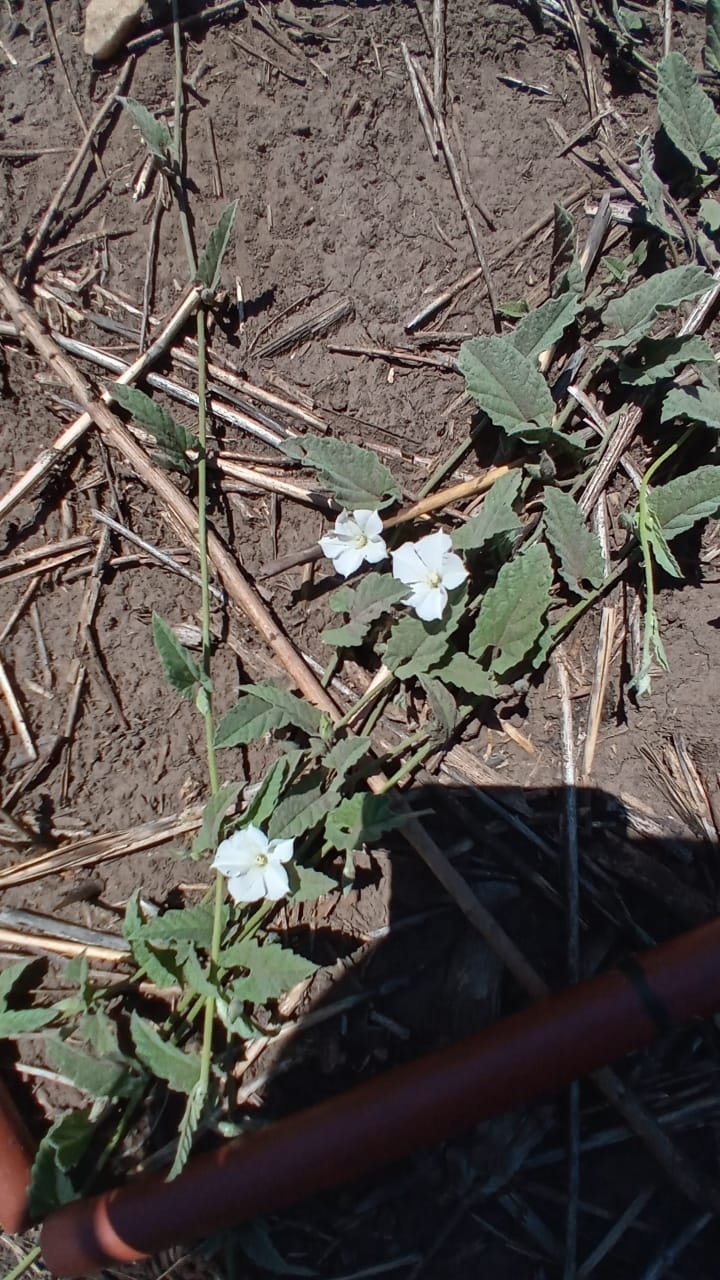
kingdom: Plantae
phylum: Tracheophyta
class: Magnoliopsida
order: Solanales
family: Convolvulaceae
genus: Convolvulus
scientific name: Convolvulus hermanniae
